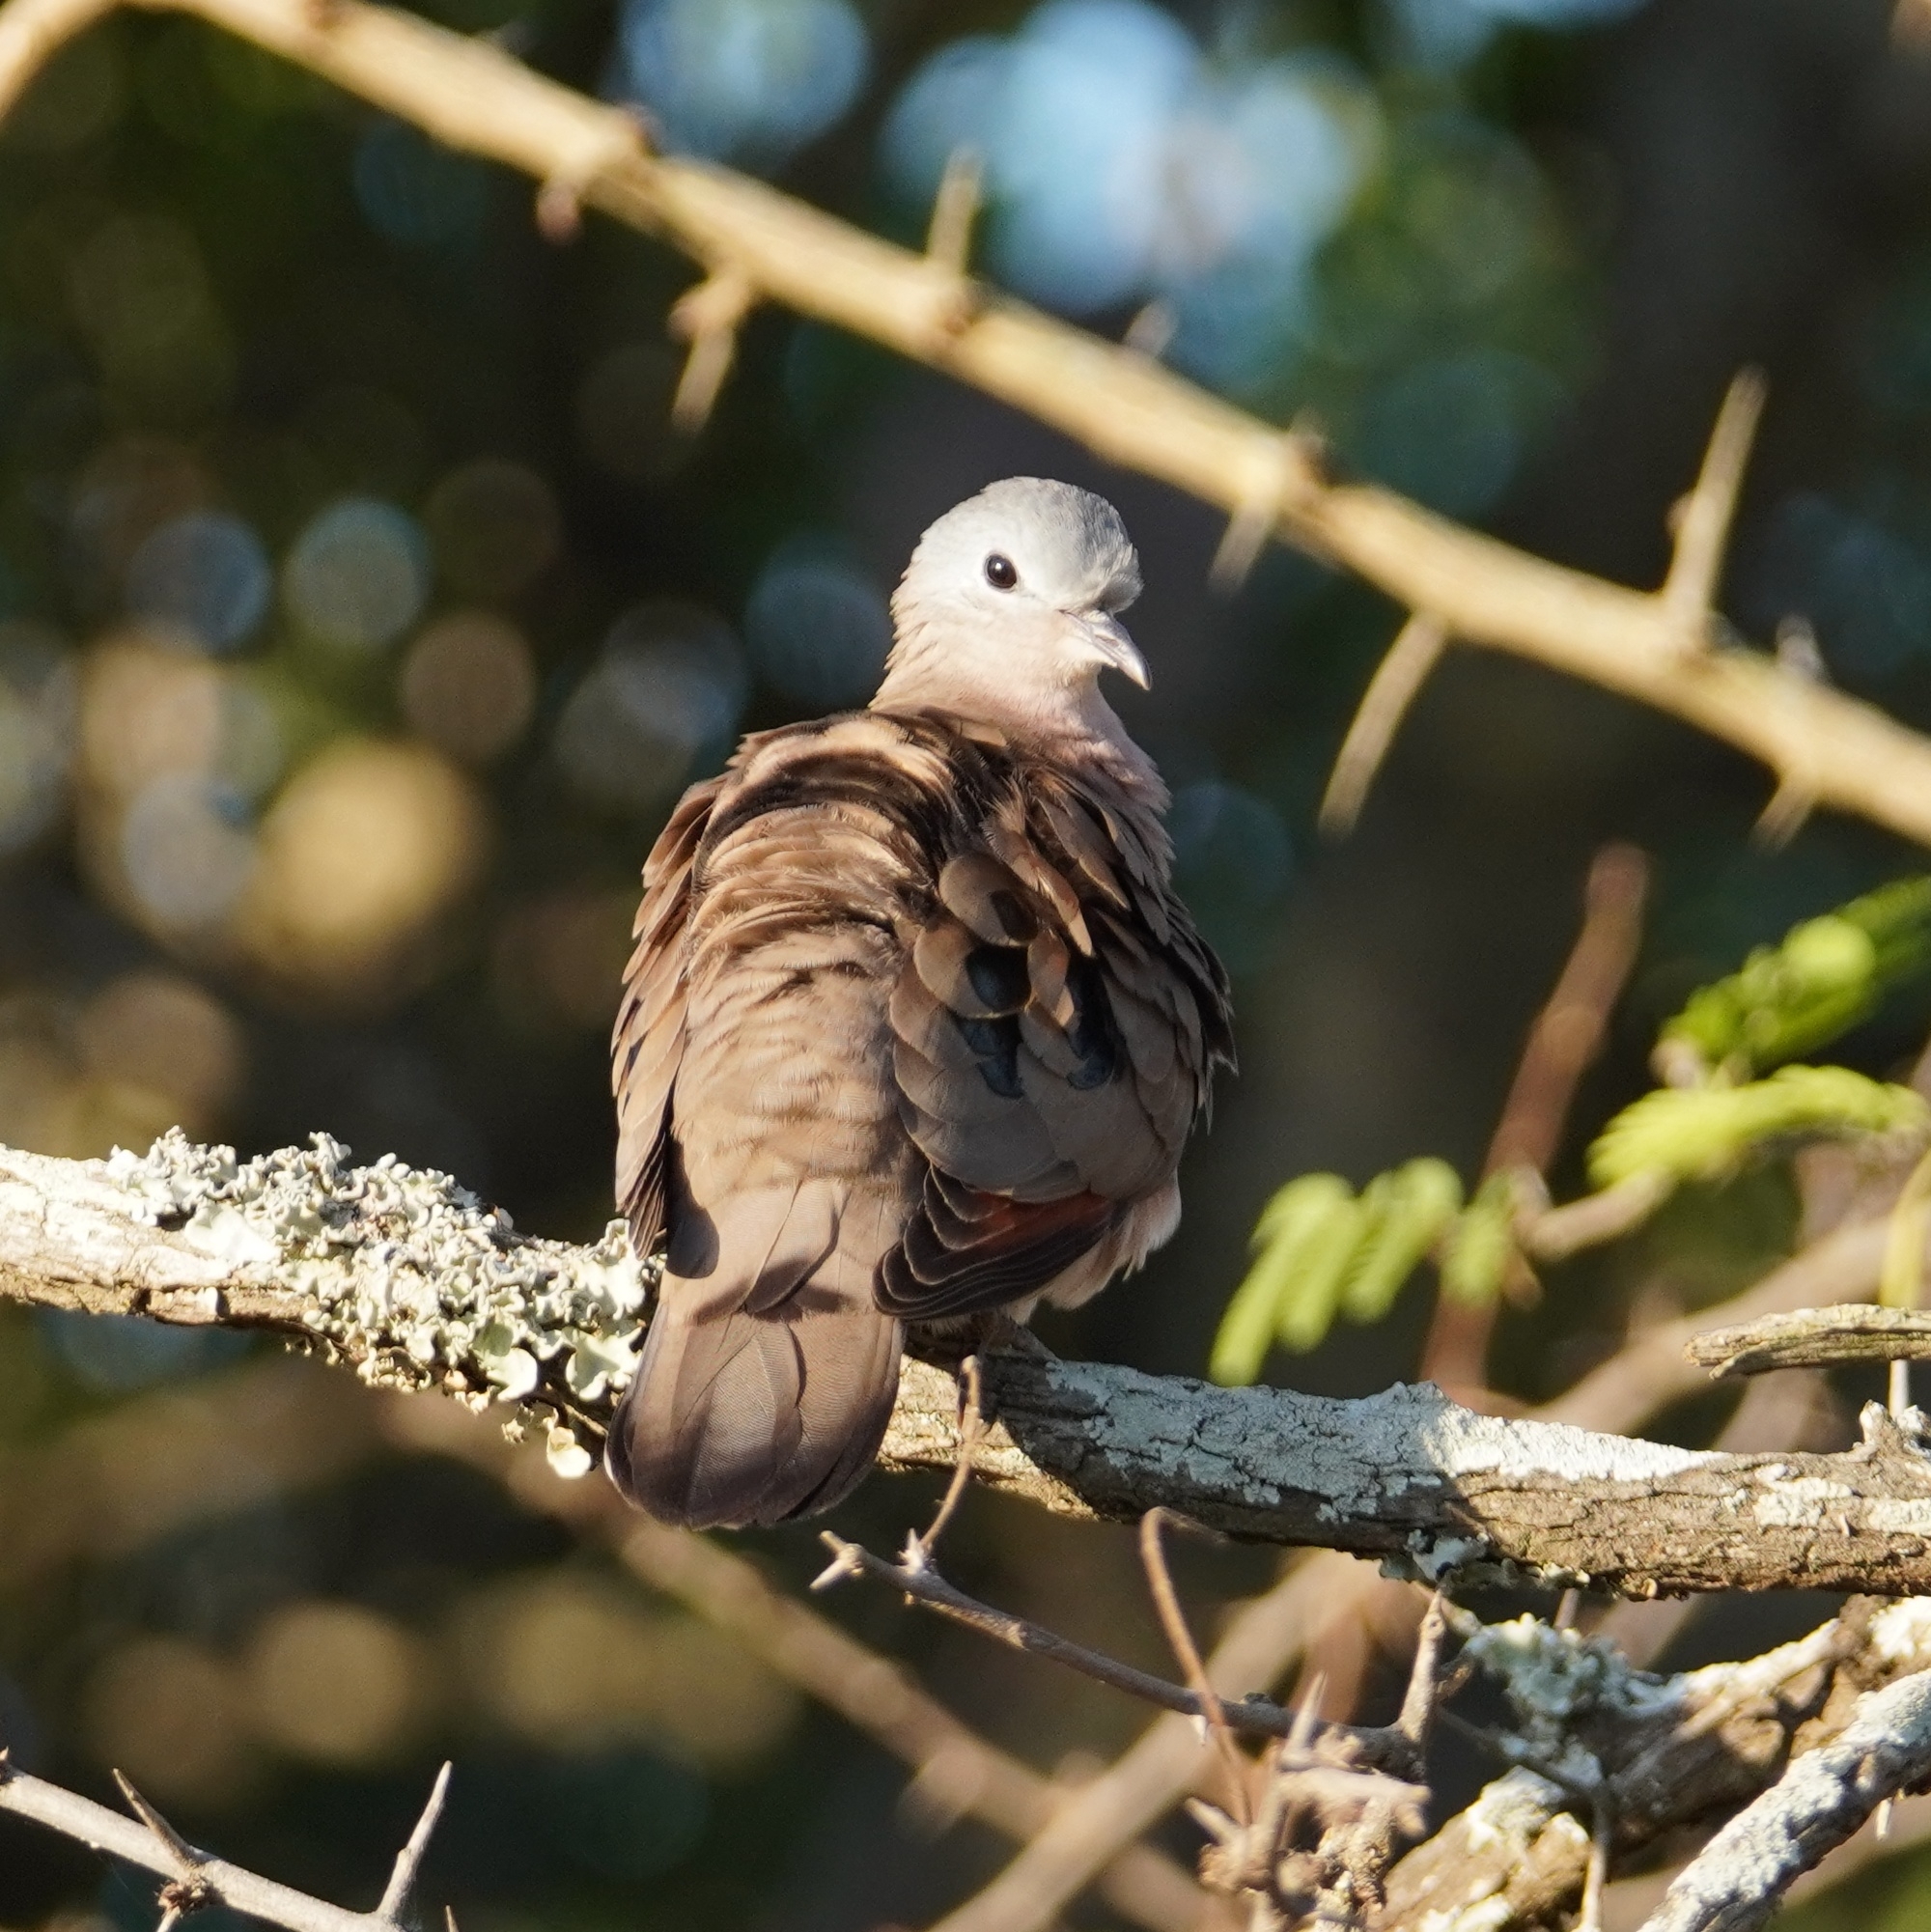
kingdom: Animalia
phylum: Chordata
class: Aves
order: Columbiformes
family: Columbidae
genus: Turtur
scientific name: Turtur chalcospilos
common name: Emerald-spotted wood dove
